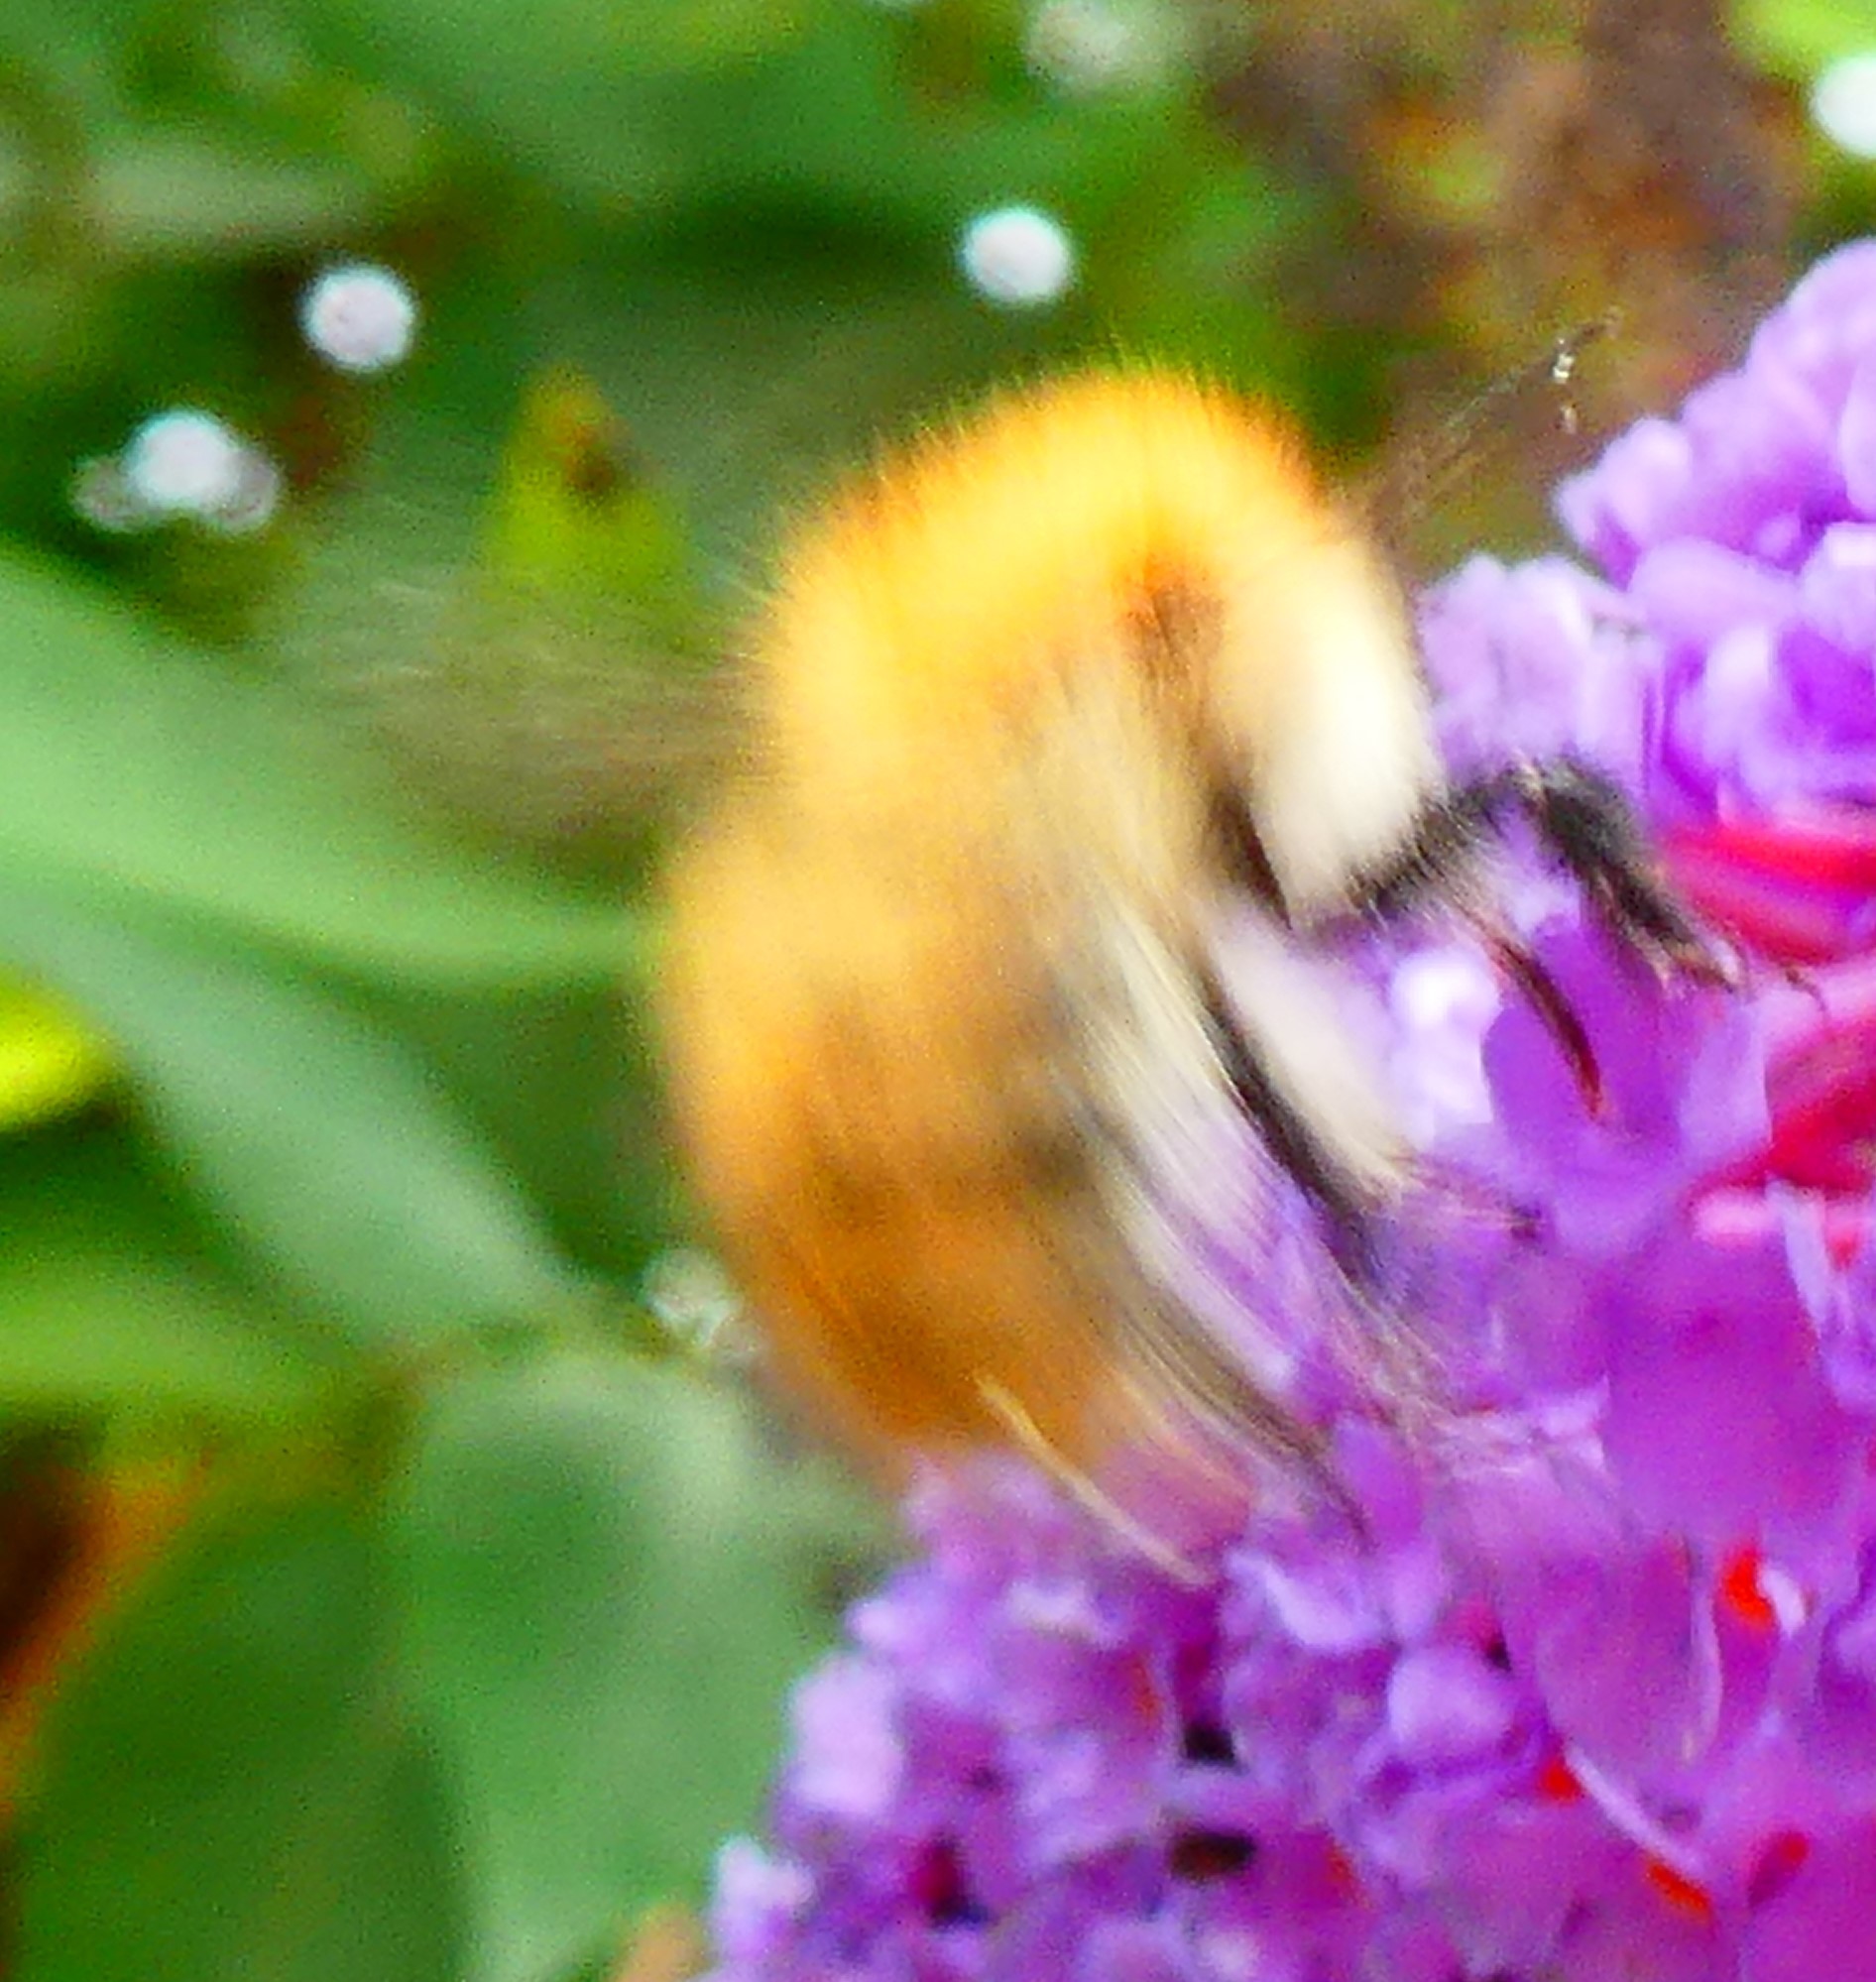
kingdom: Animalia
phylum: Arthropoda
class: Insecta
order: Hymenoptera
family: Apidae
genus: Bombus
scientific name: Bombus pascuorum
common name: Common carder bee
